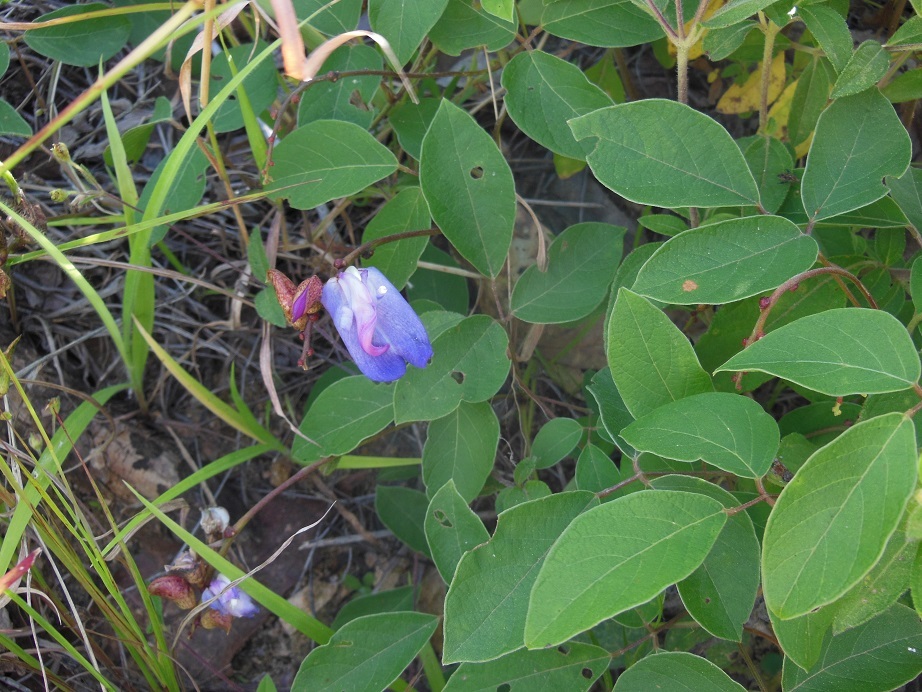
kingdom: Plantae
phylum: Tracheophyta
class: Magnoliopsida
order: Fabales
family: Fabaceae
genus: Canavalia
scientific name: Canavalia hirsutissima
